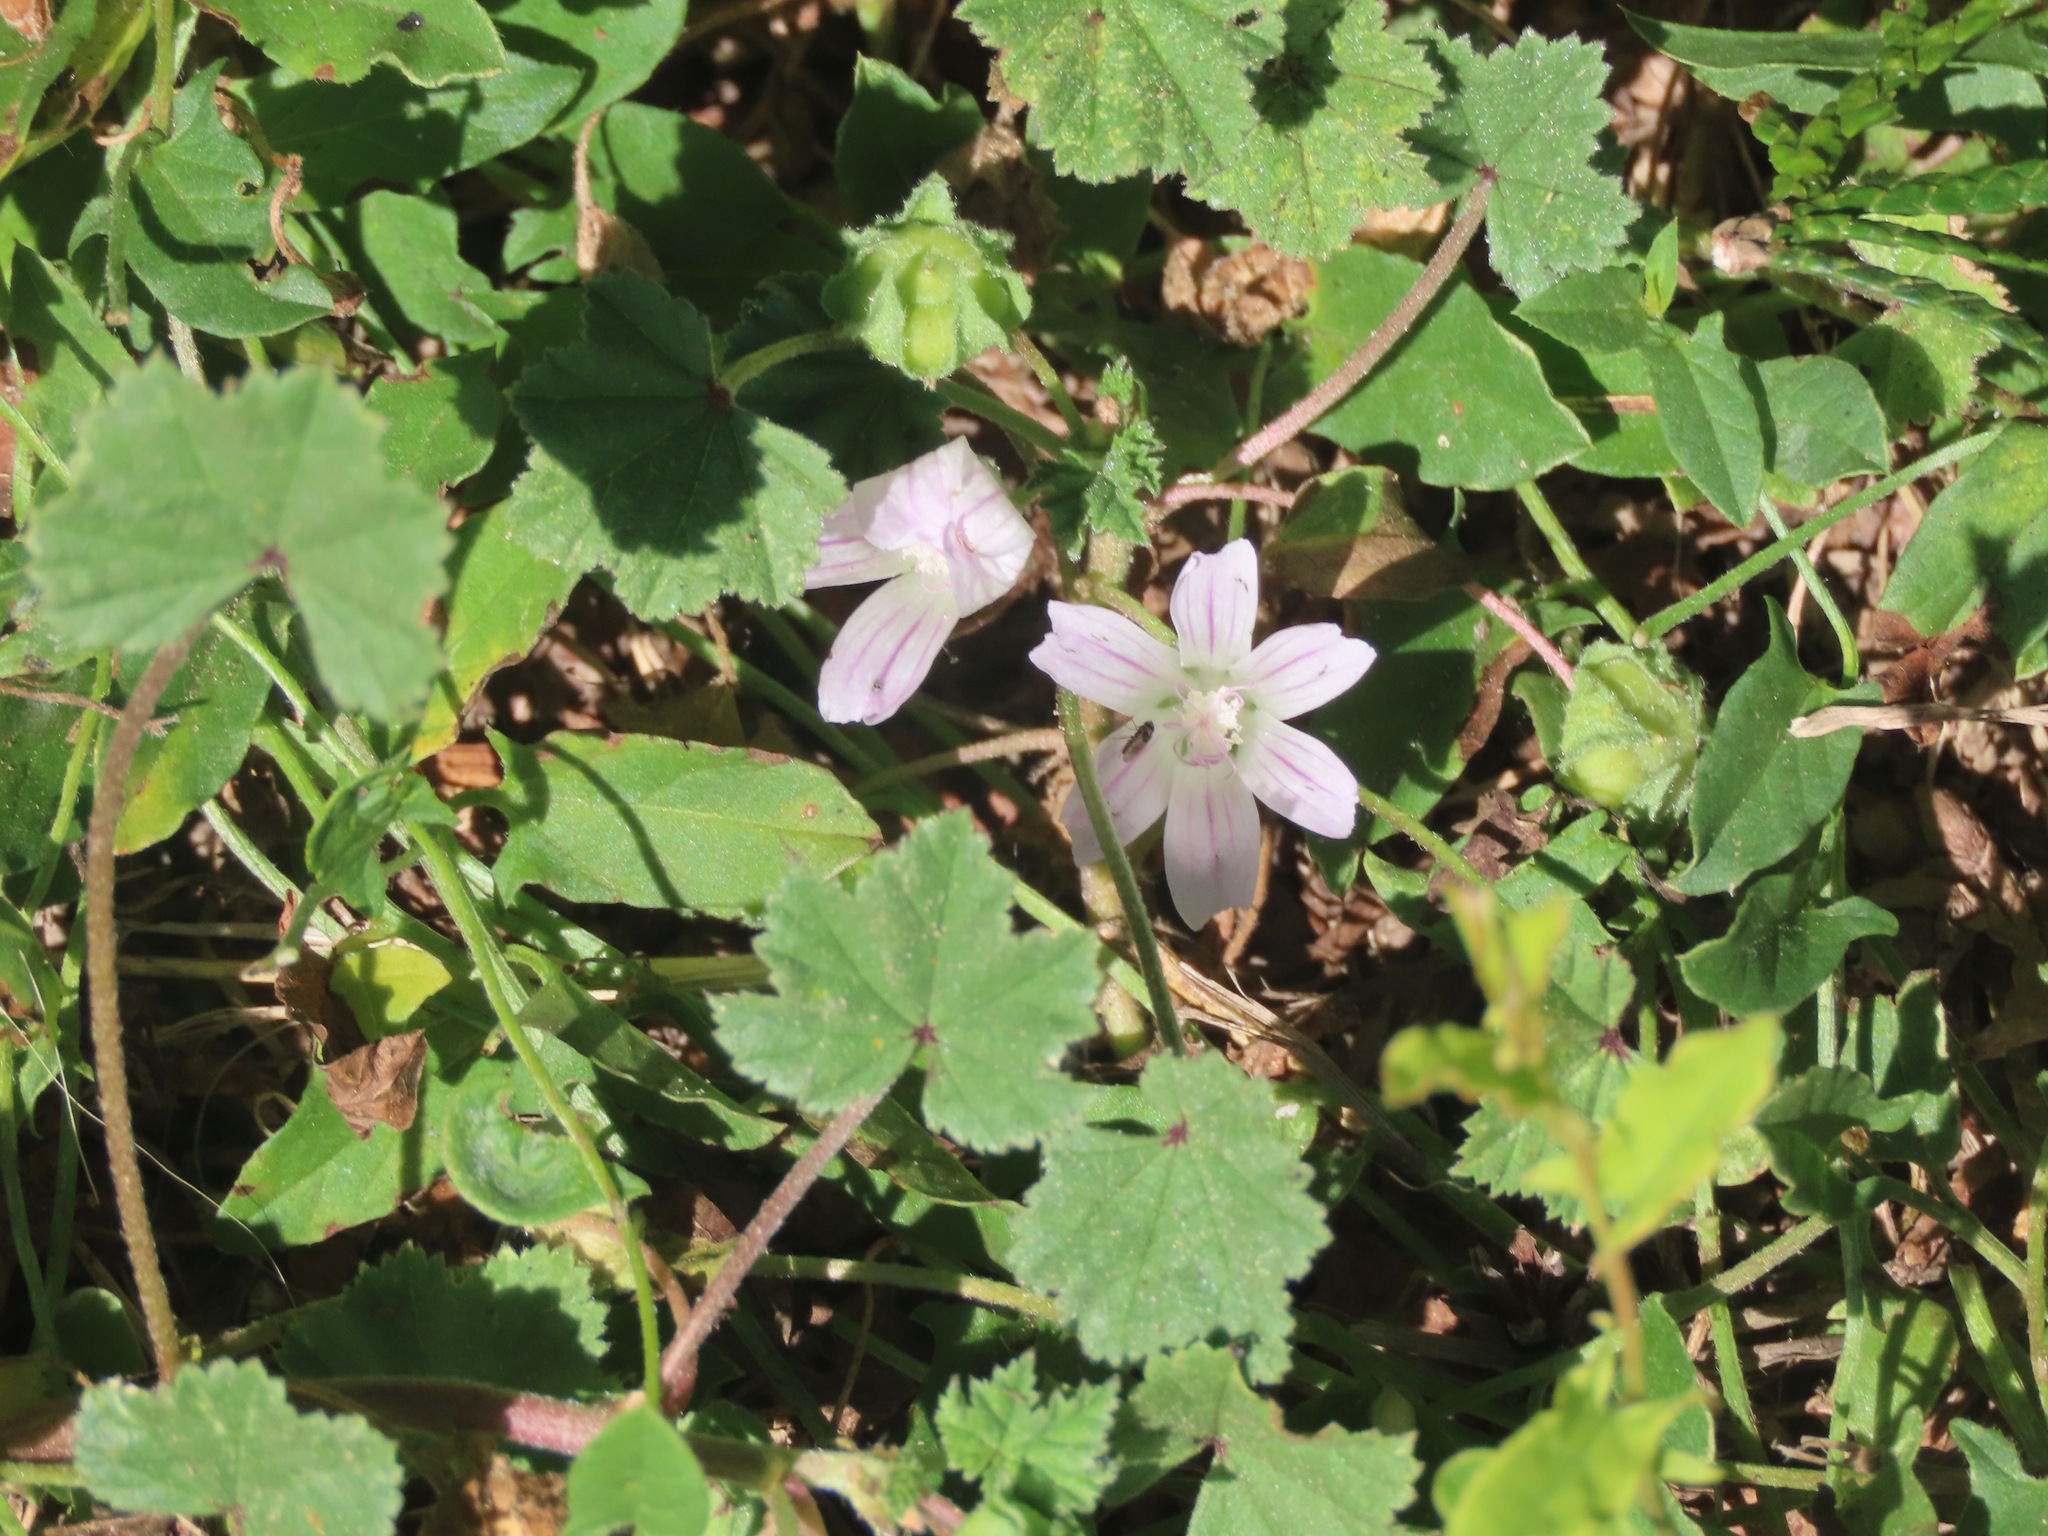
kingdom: Plantae
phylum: Tracheophyta
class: Magnoliopsida
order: Malvales
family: Malvaceae
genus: Malva
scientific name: Malva neglecta
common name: Common mallow
